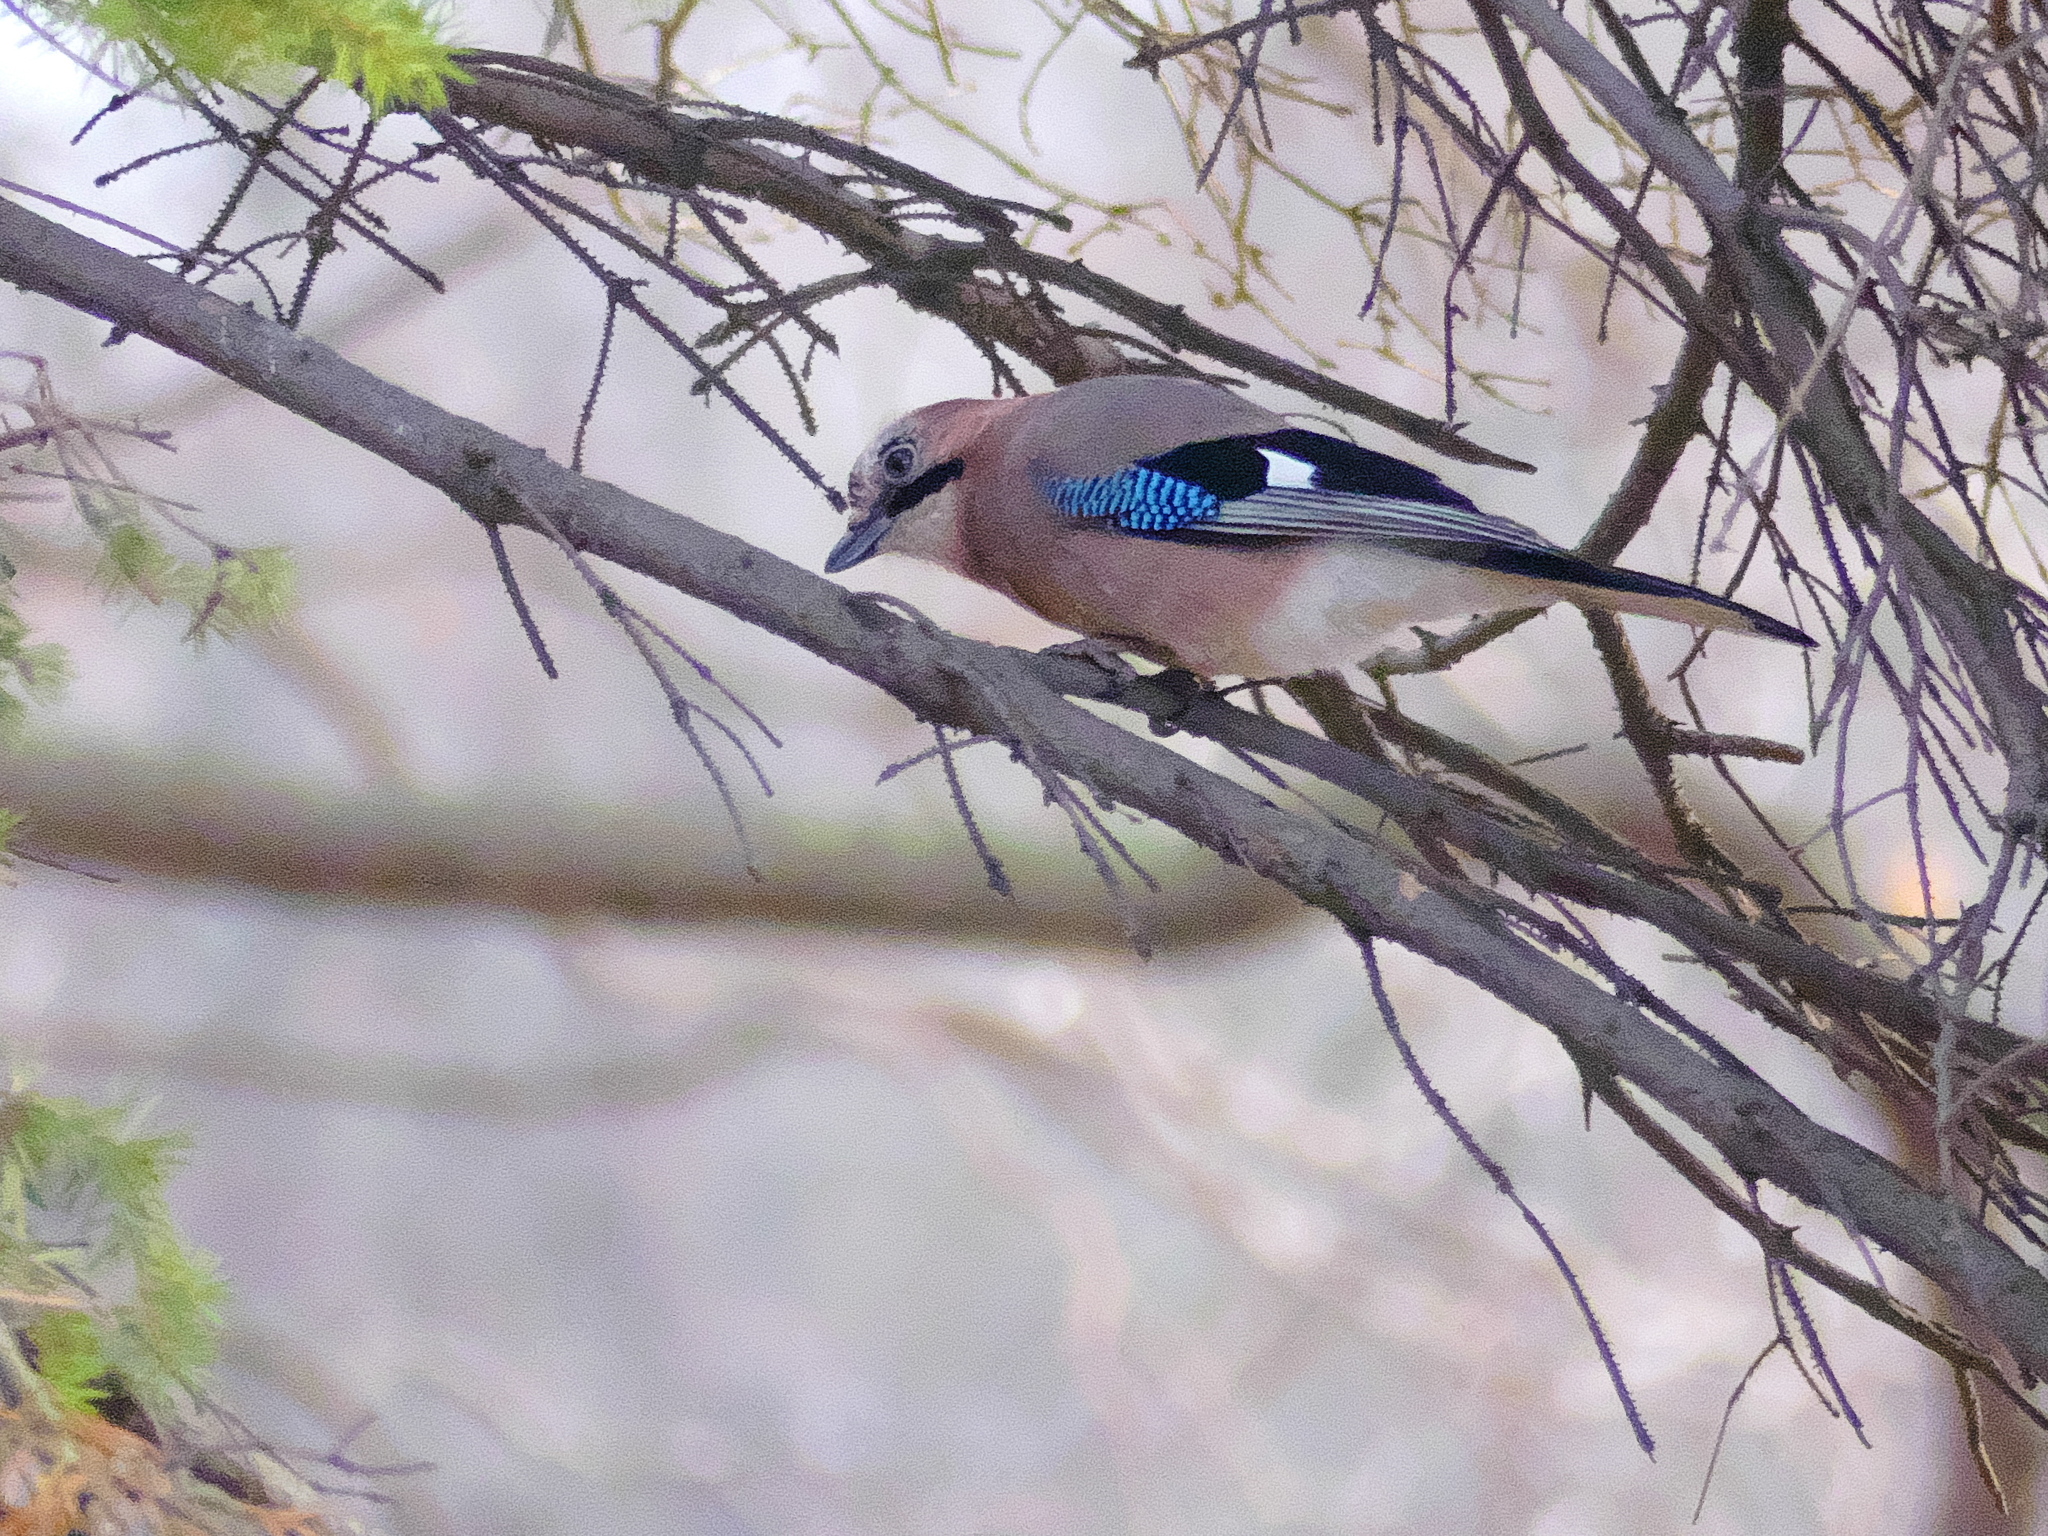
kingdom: Animalia
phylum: Chordata
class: Aves
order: Passeriformes
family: Corvidae
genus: Garrulus
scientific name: Garrulus glandarius
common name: Eurasian jay
